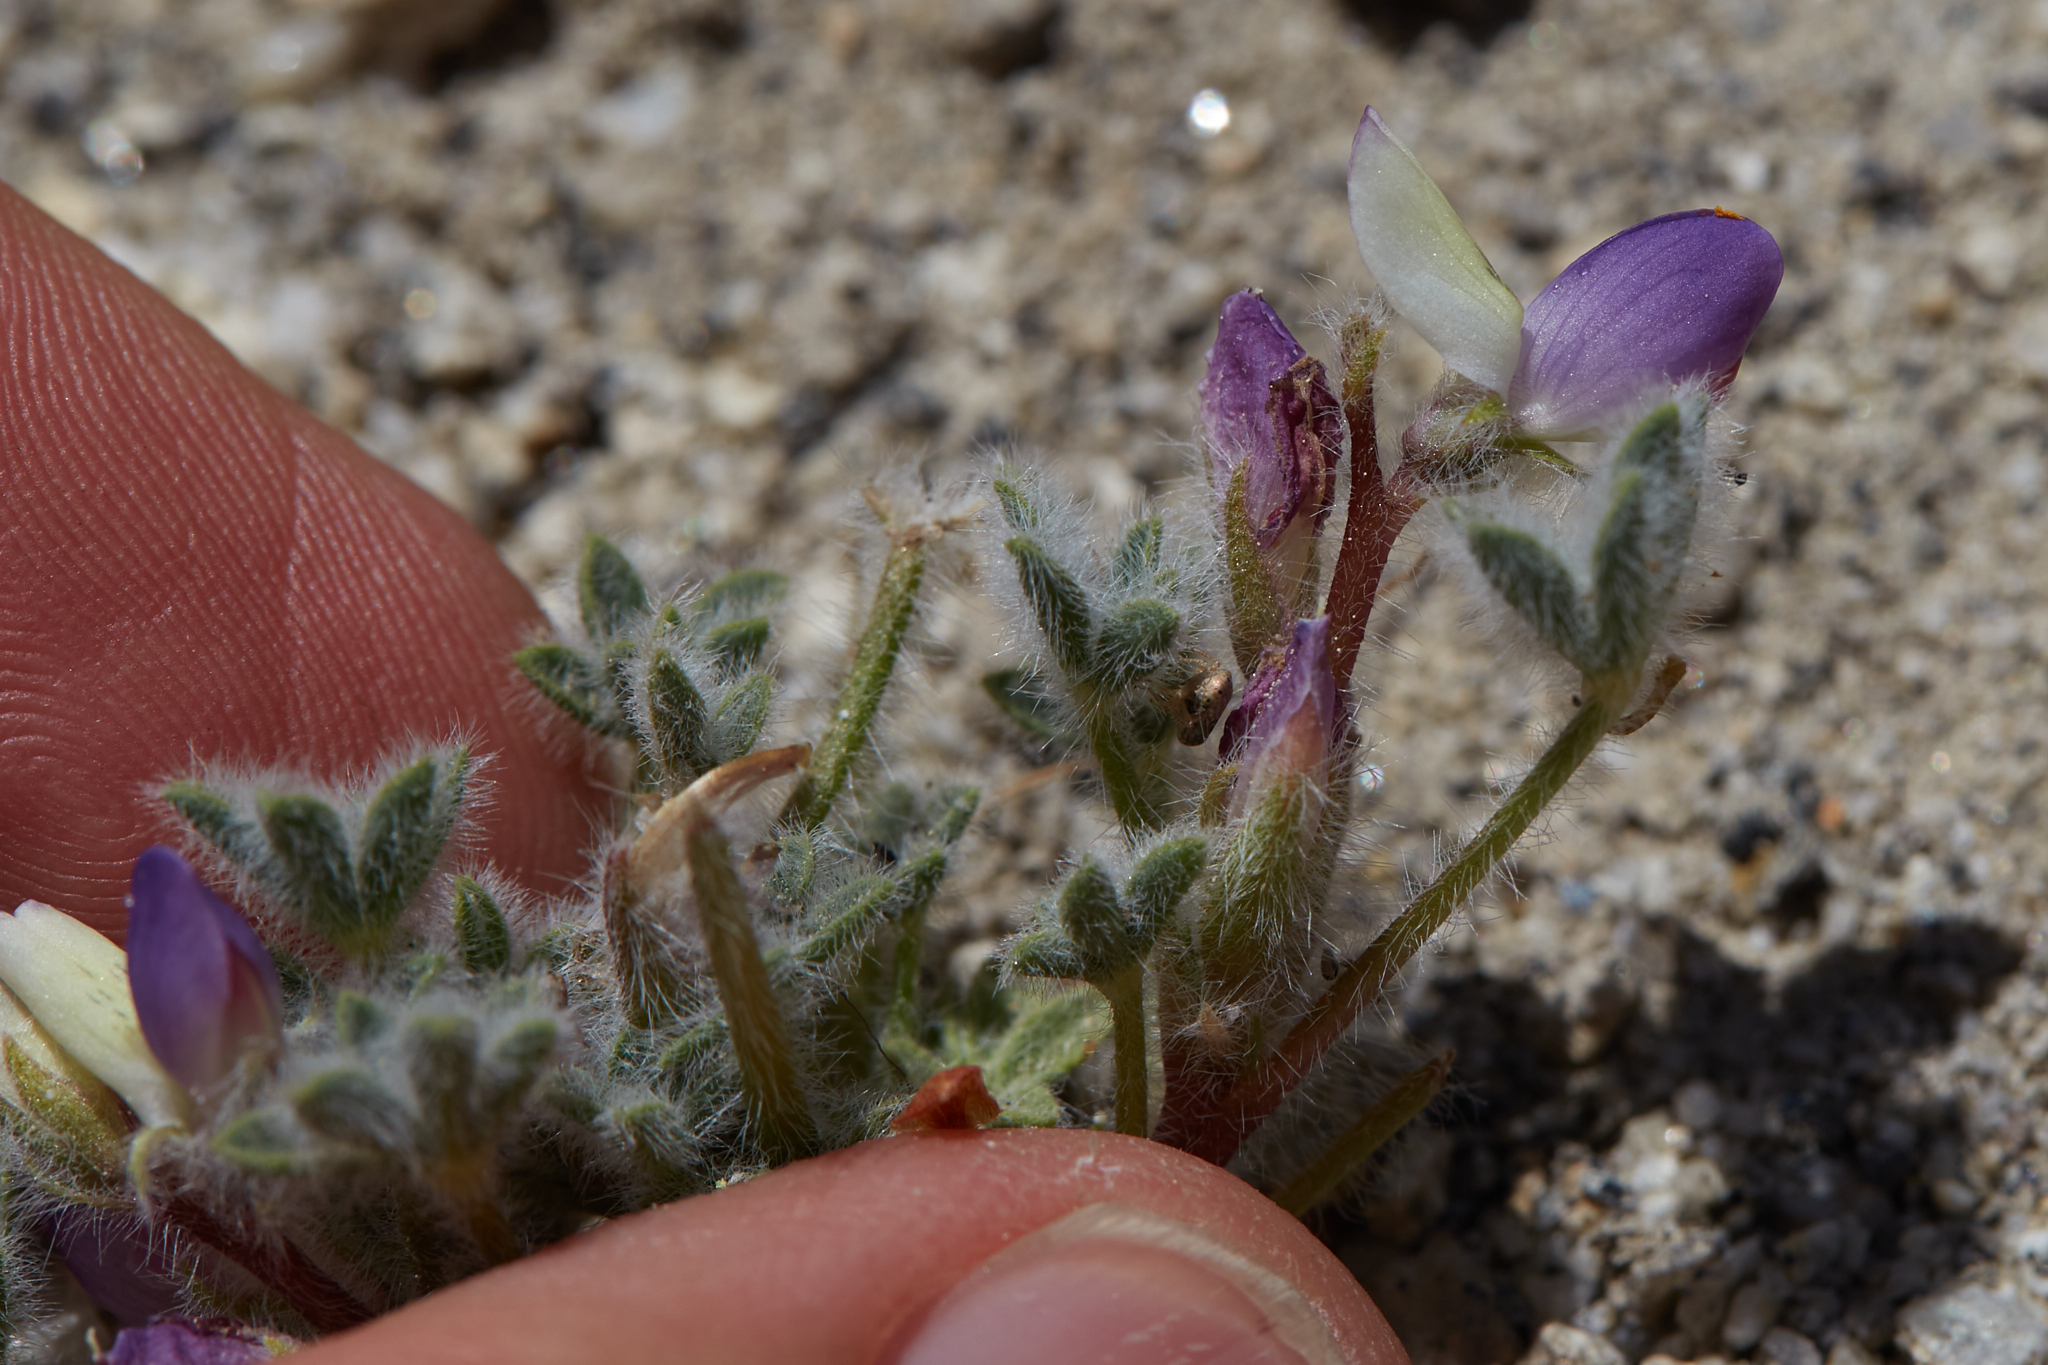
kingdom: Plantae
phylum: Tracheophyta
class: Magnoliopsida
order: Fabales
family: Fabaceae
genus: Lupinus
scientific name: Lupinus concinnus
